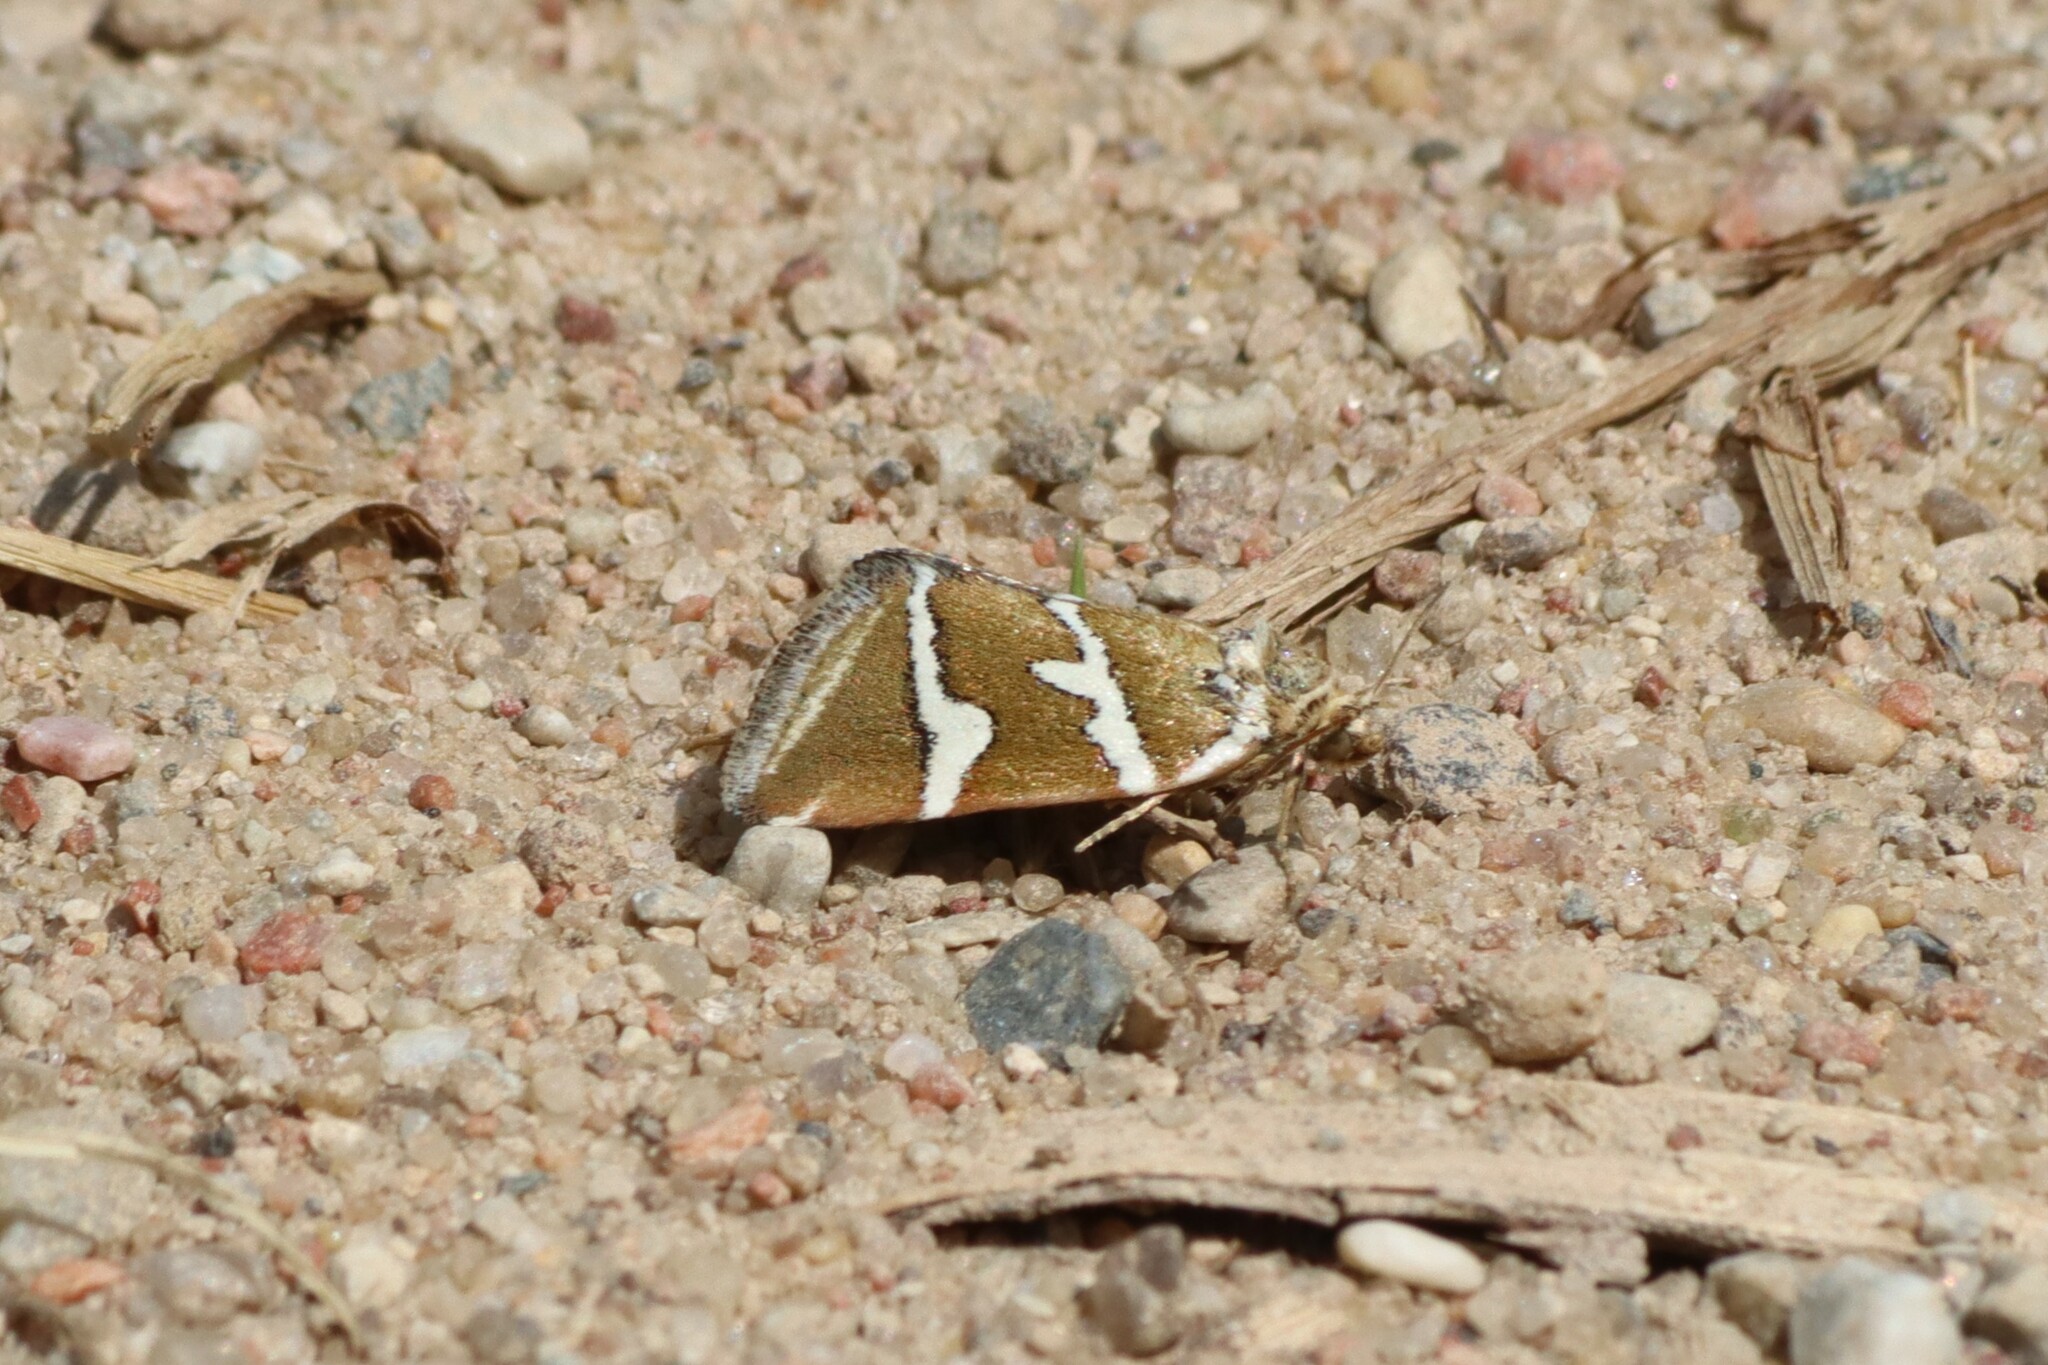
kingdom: Animalia
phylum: Arthropoda
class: Insecta
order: Lepidoptera
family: Noctuidae
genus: Deltote
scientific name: Deltote bankiana
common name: Silver barred
